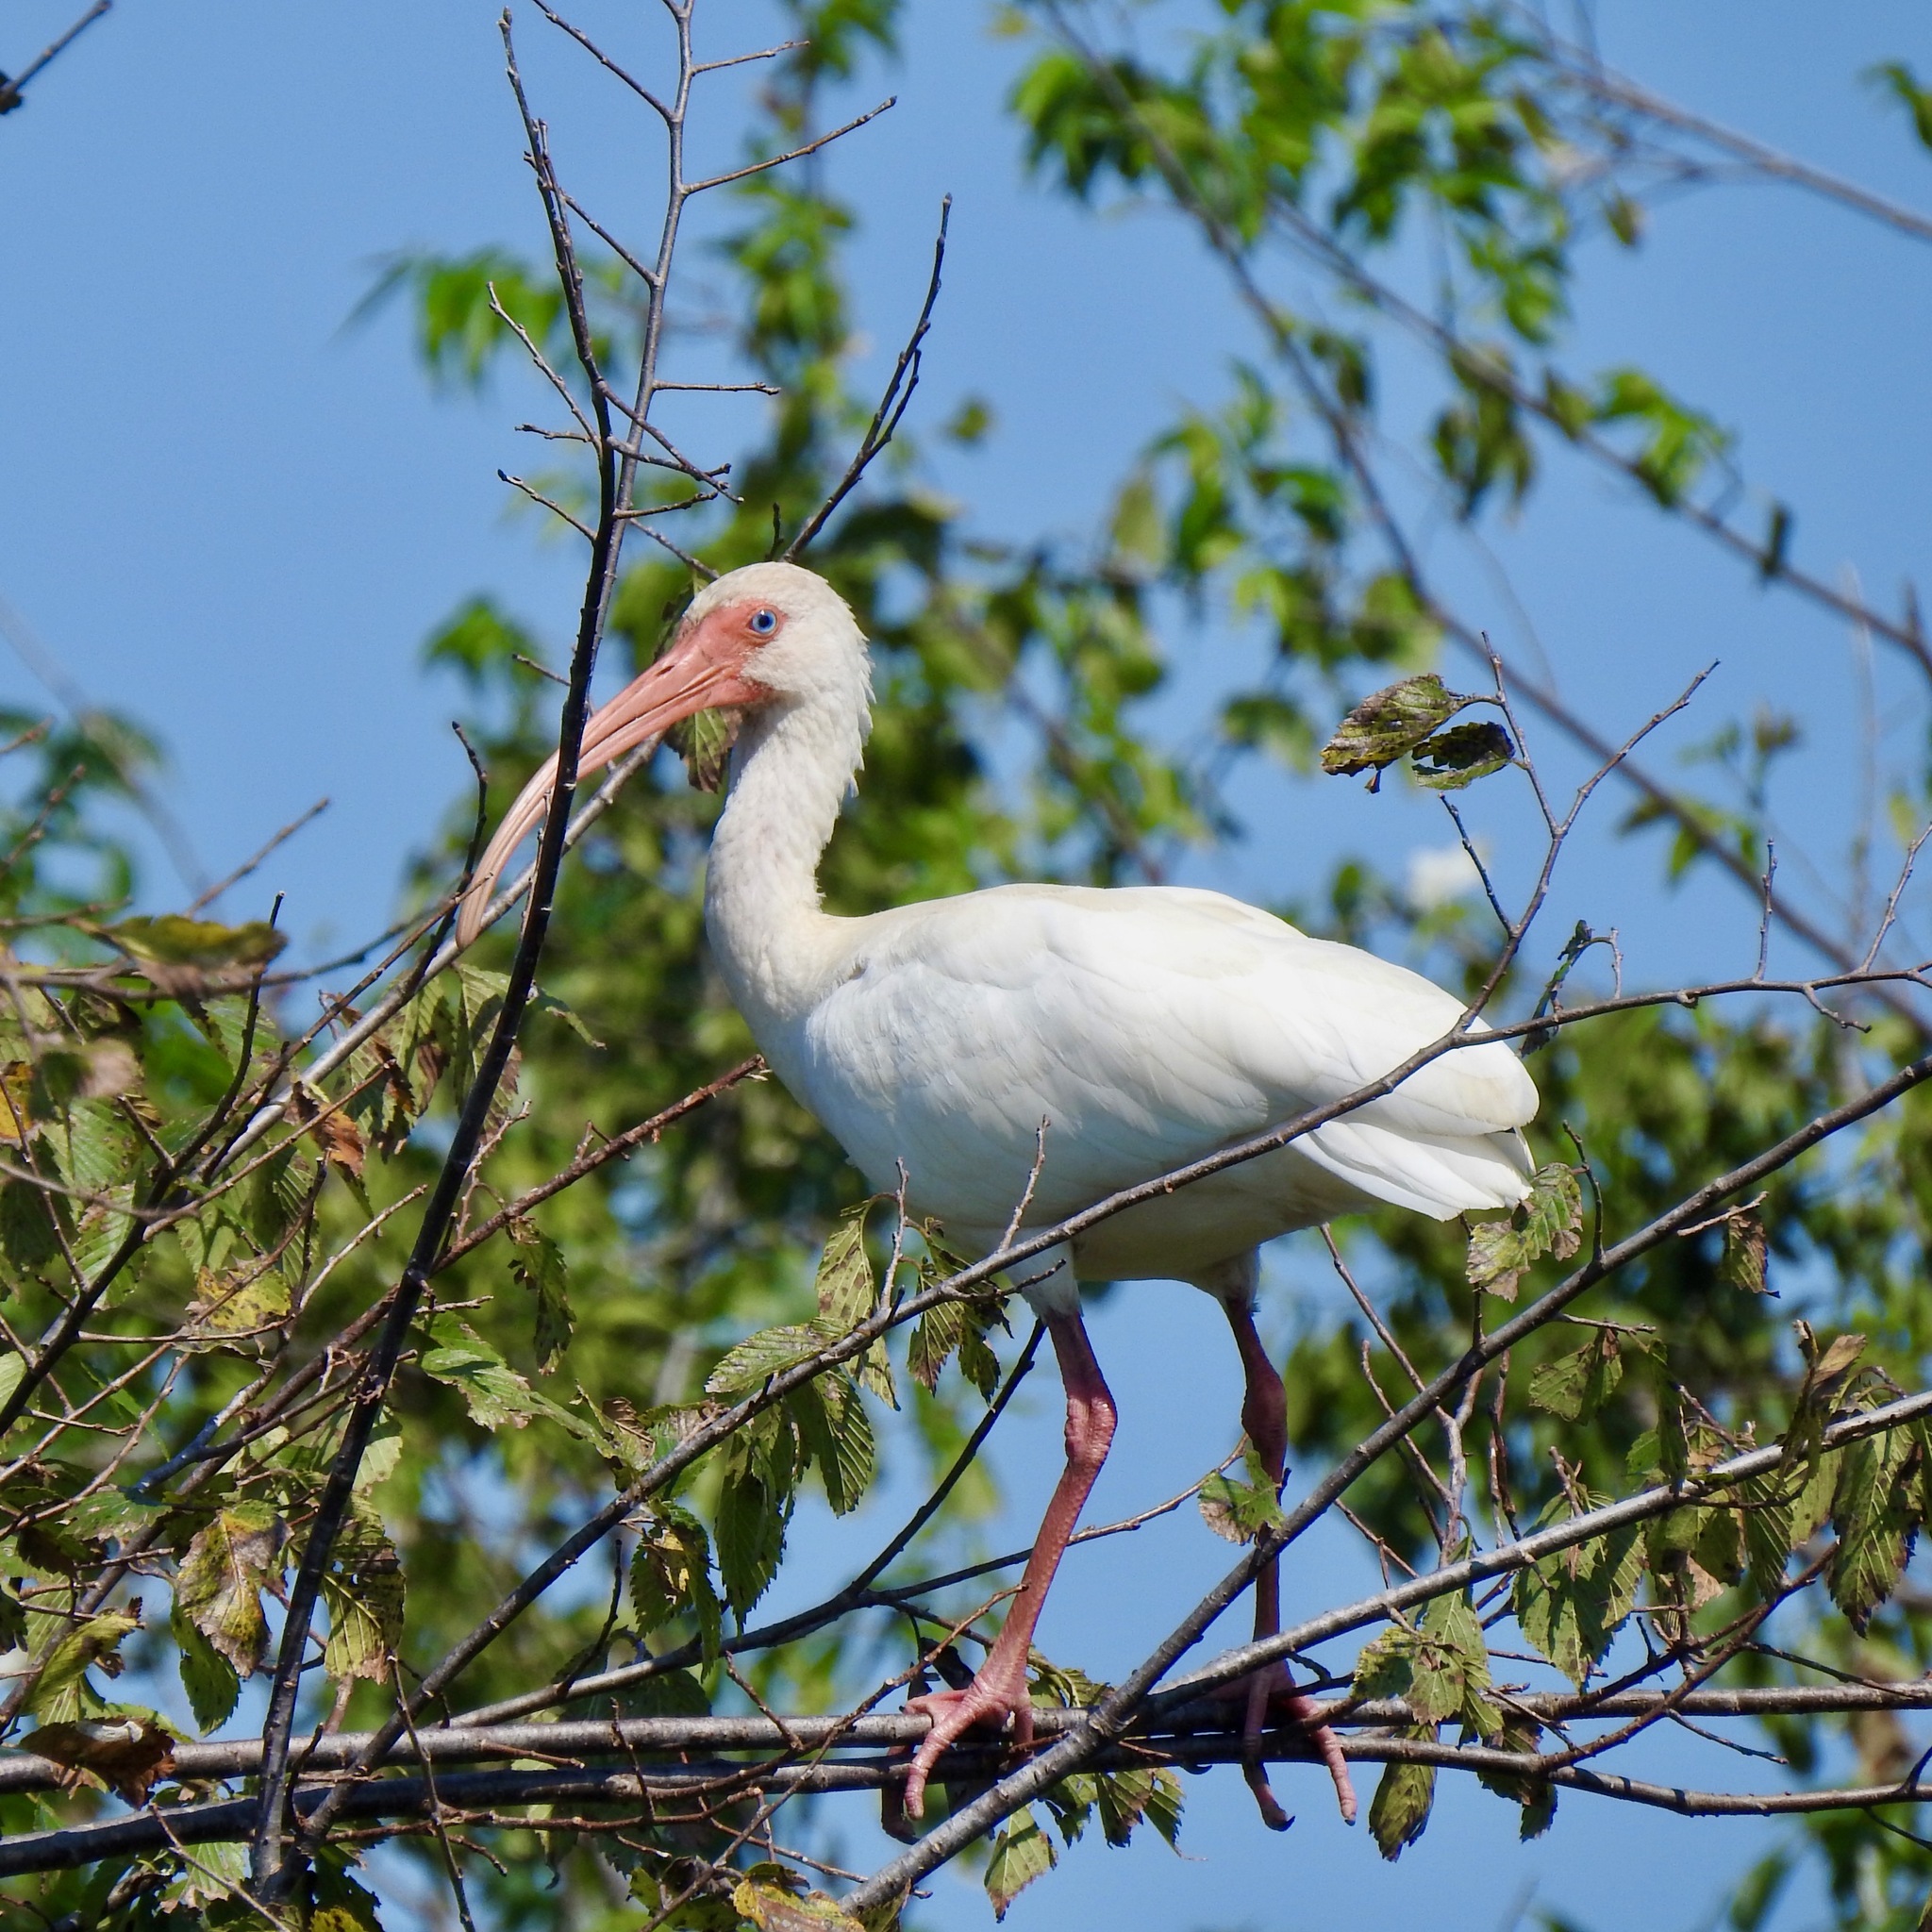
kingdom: Animalia
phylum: Chordata
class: Aves
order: Pelecaniformes
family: Threskiornithidae
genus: Eudocimus
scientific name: Eudocimus albus
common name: White ibis
